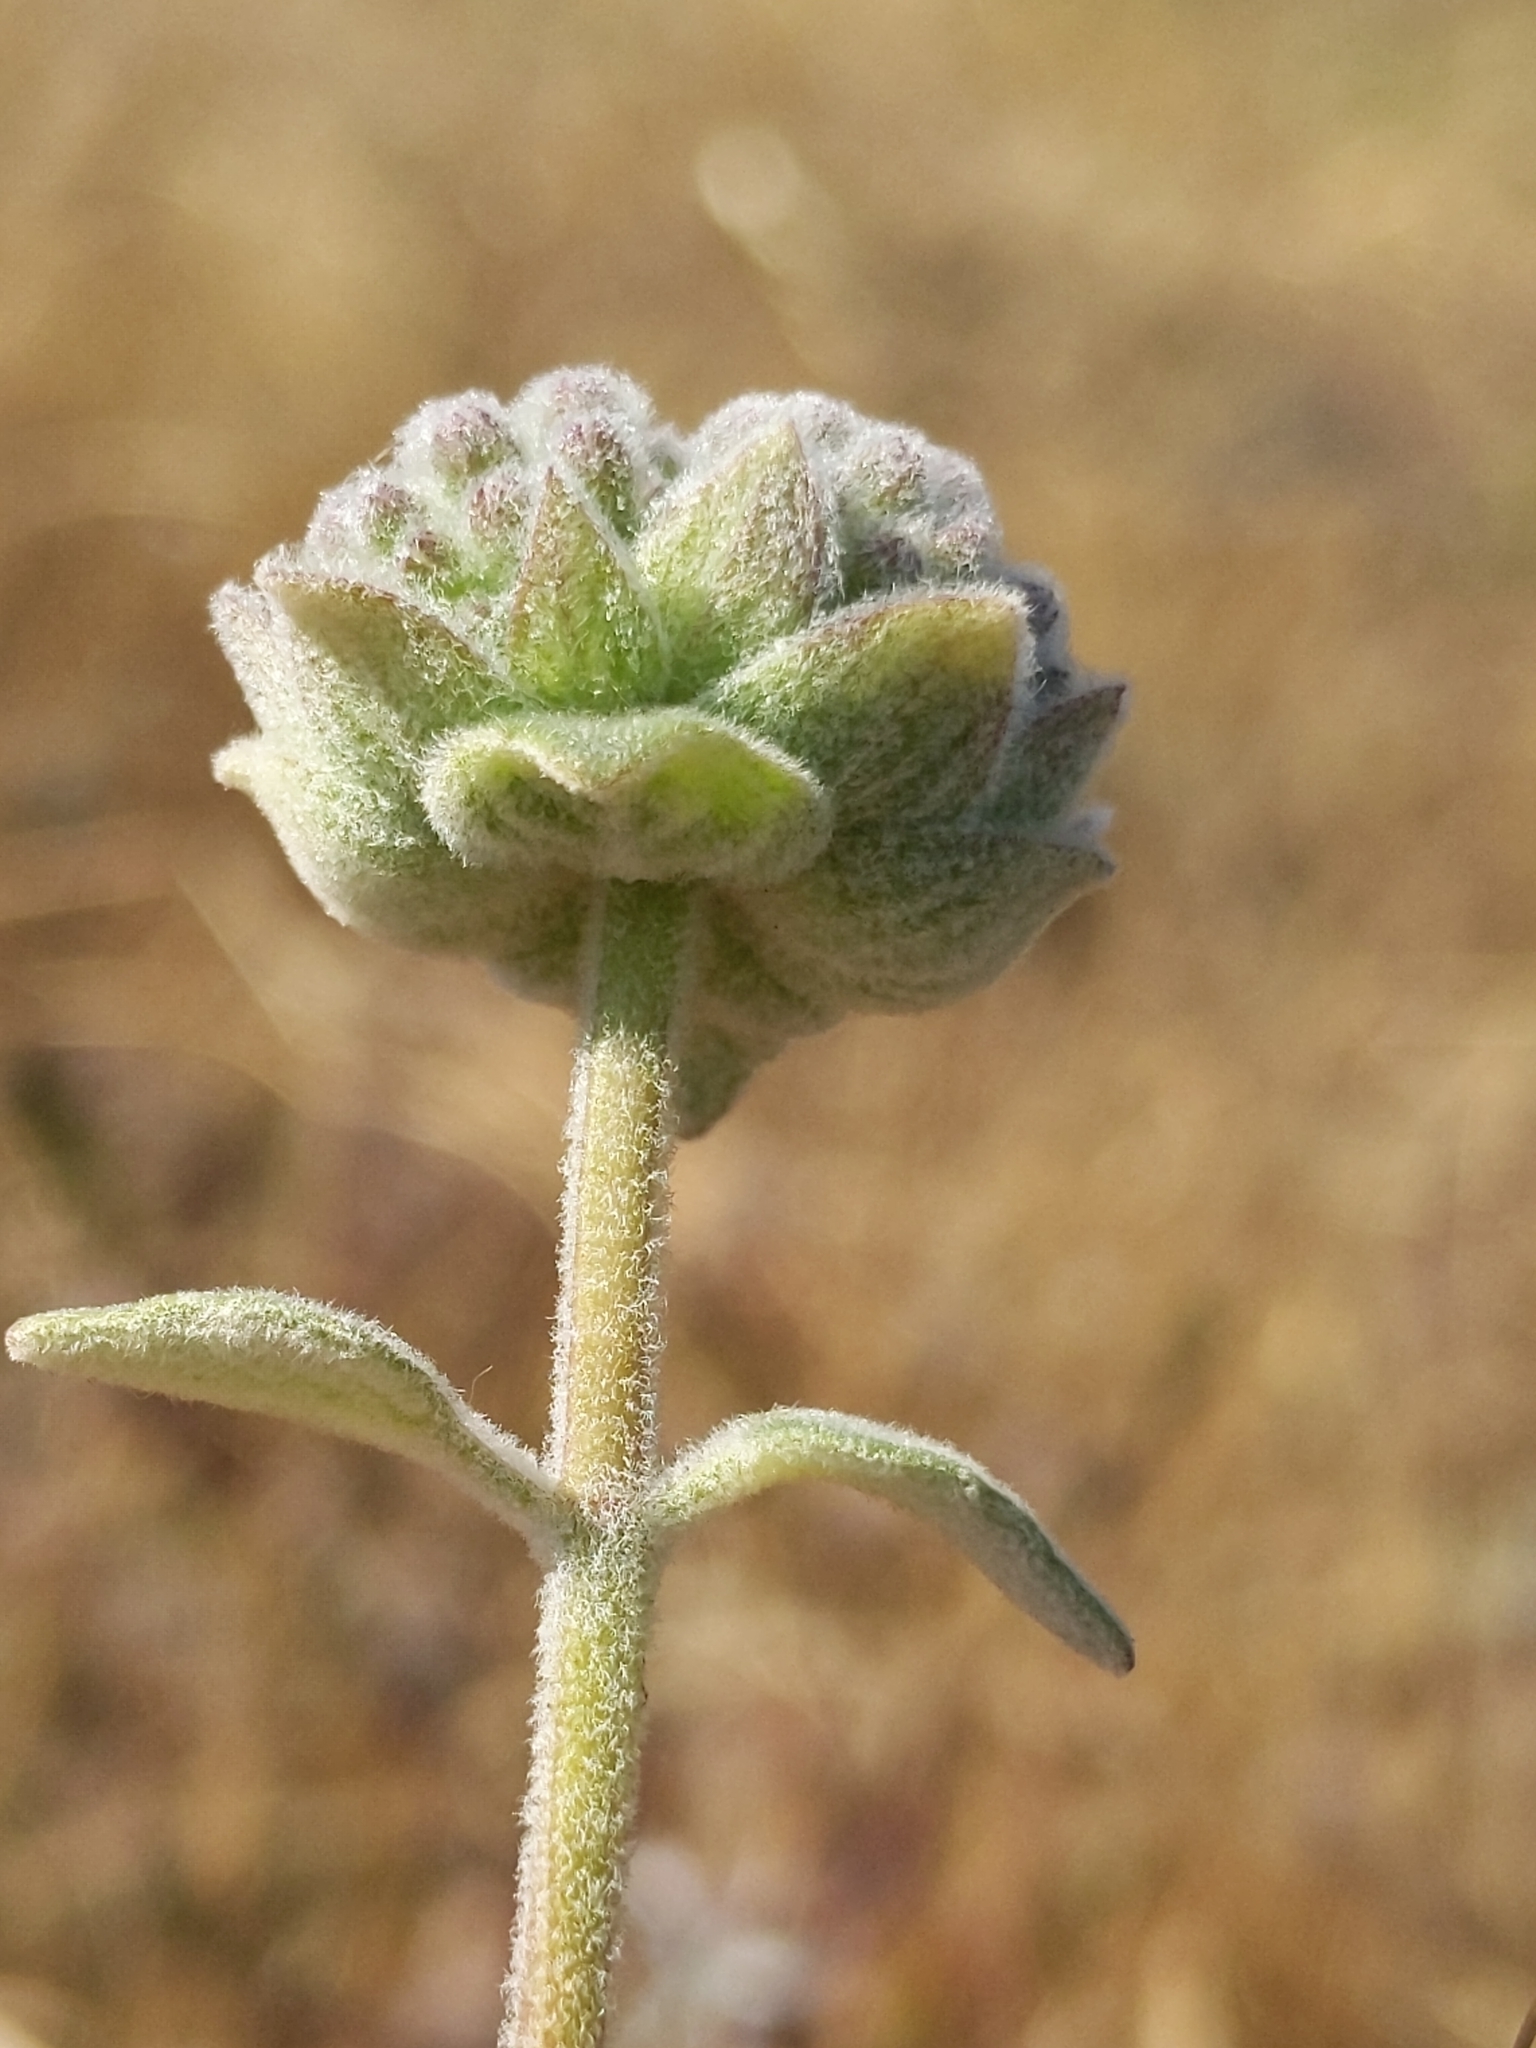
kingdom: Plantae
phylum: Tracheophyta
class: Magnoliopsida
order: Lamiales
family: Lamiaceae
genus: Monardella
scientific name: Monardella odoratissima
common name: Pacific monardella
